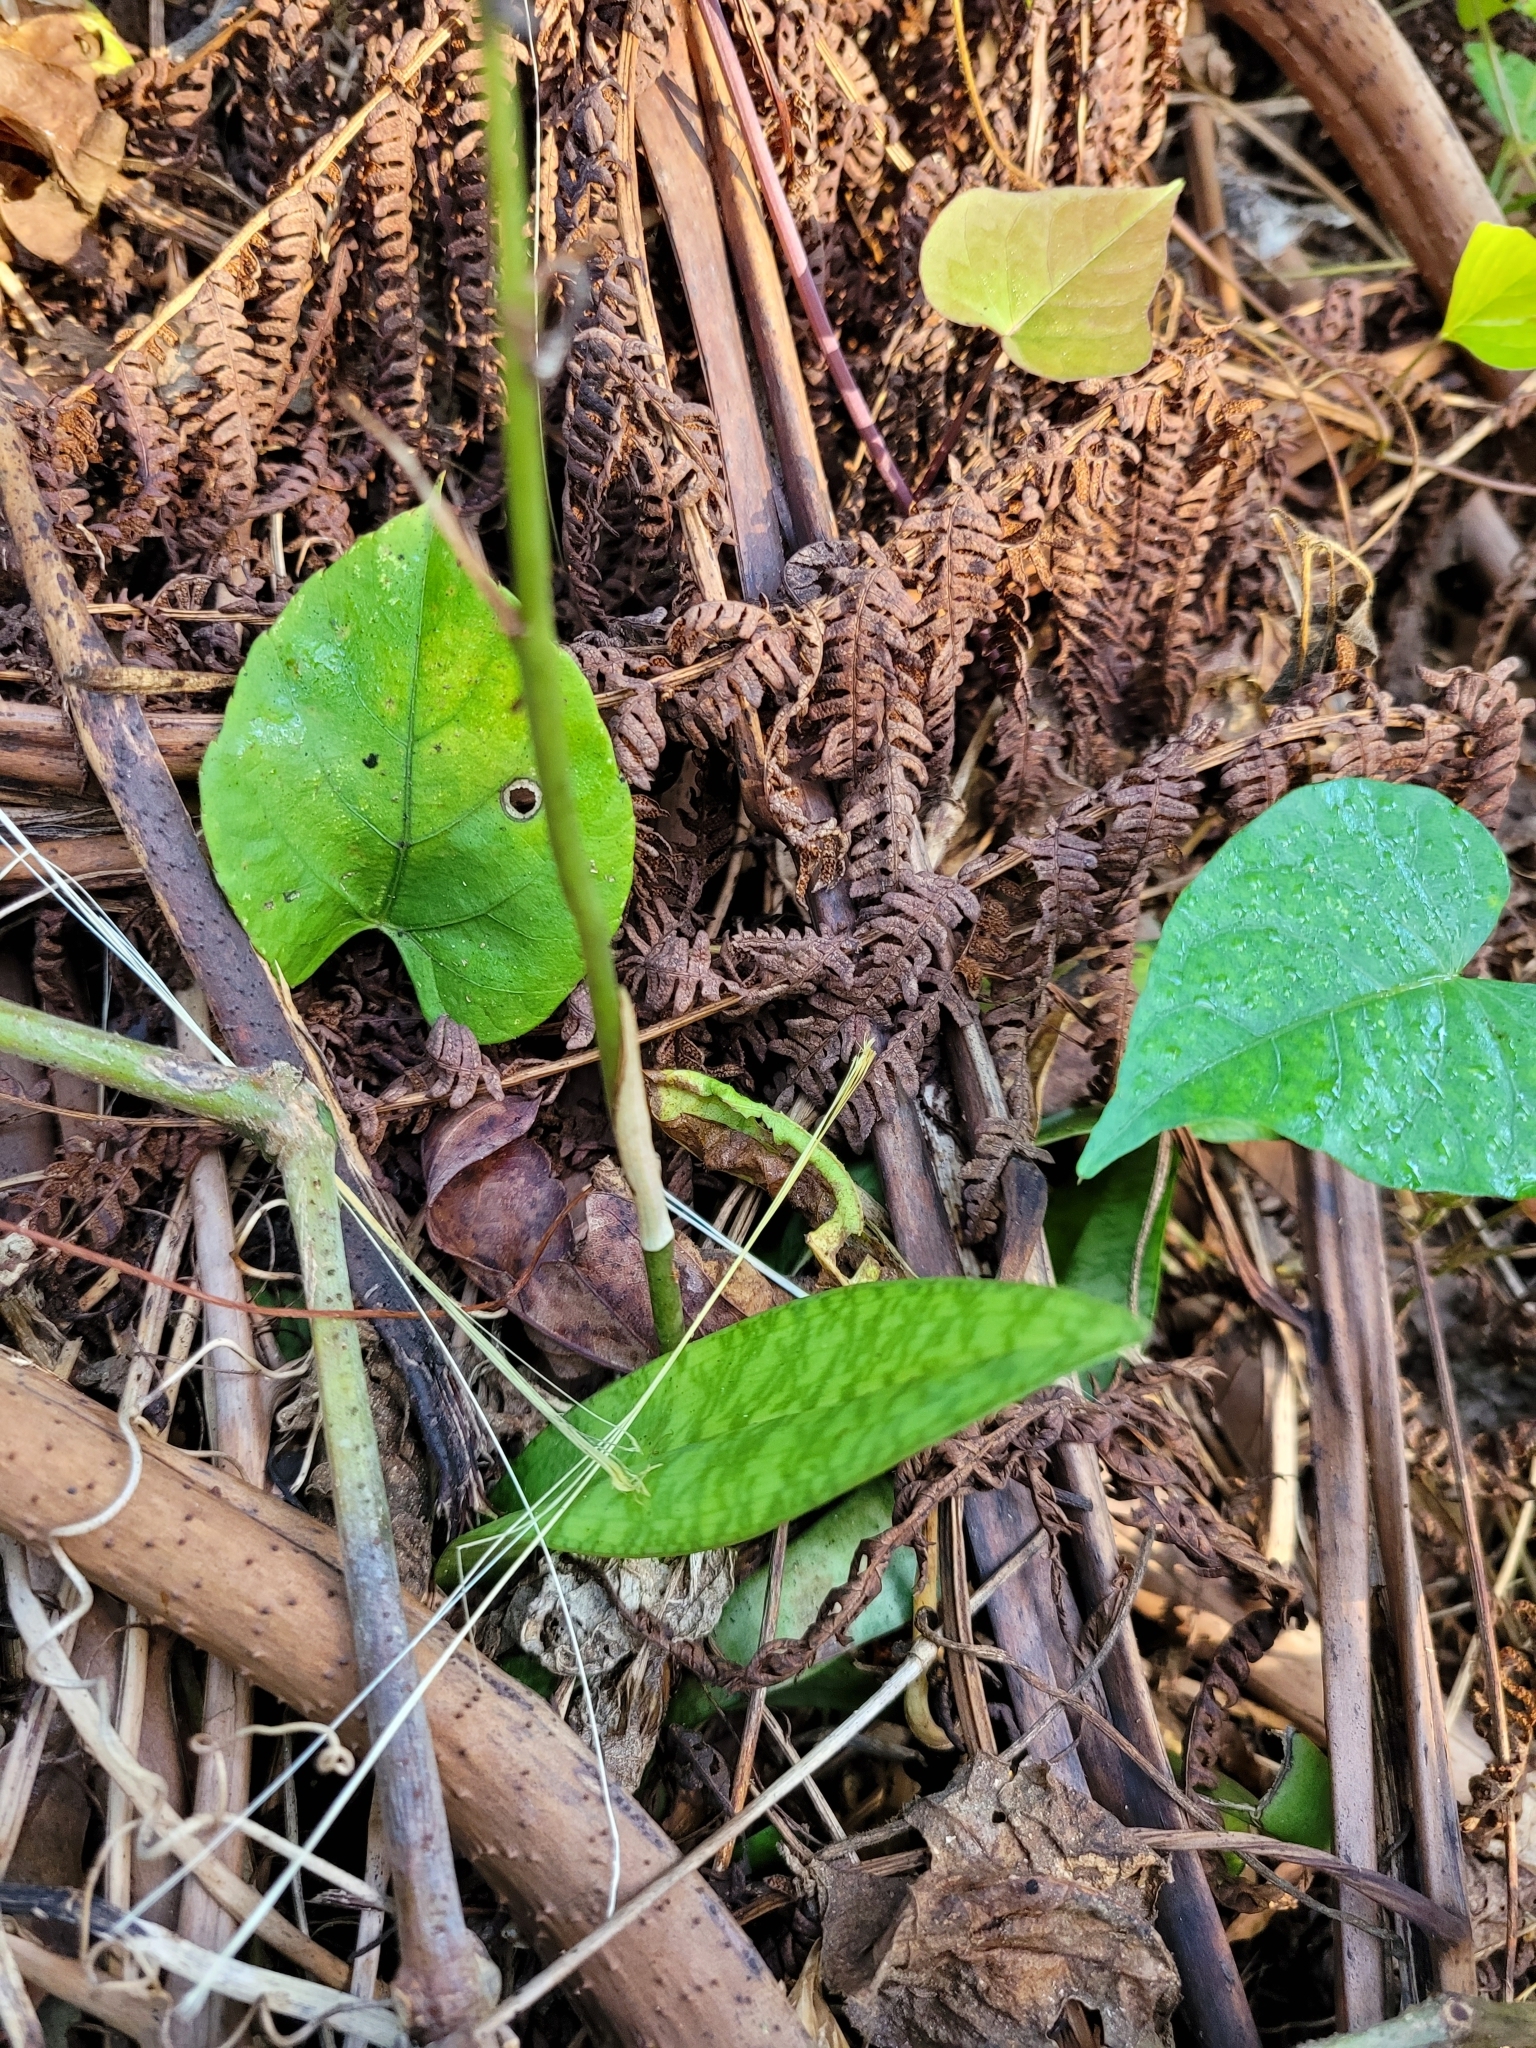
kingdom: Plantae
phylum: Tracheophyta
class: Liliopsida
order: Asparagales
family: Orchidaceae
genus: Eulophia
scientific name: Eulophia maculata
